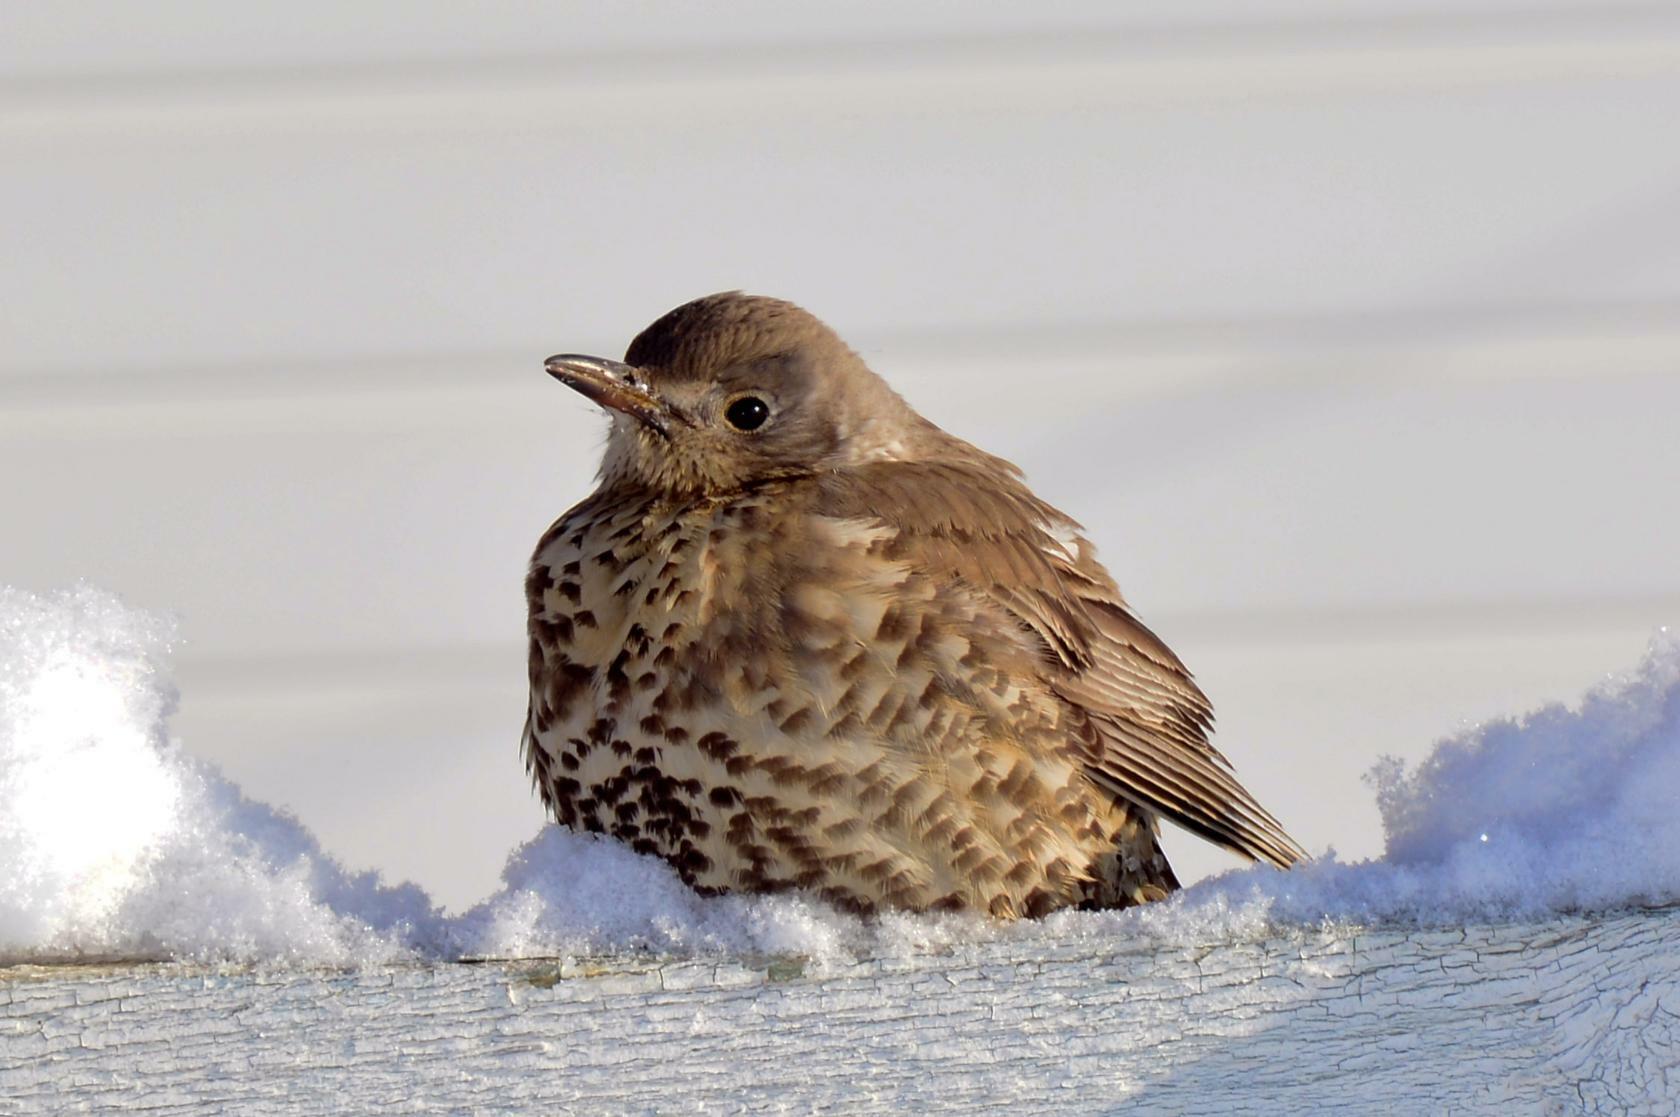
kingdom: Animalia
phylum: Chordata
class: Aves
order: Passeriformes
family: Turdidae
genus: Turdus
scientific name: Turdus viscivorus
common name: Mistle thrush
